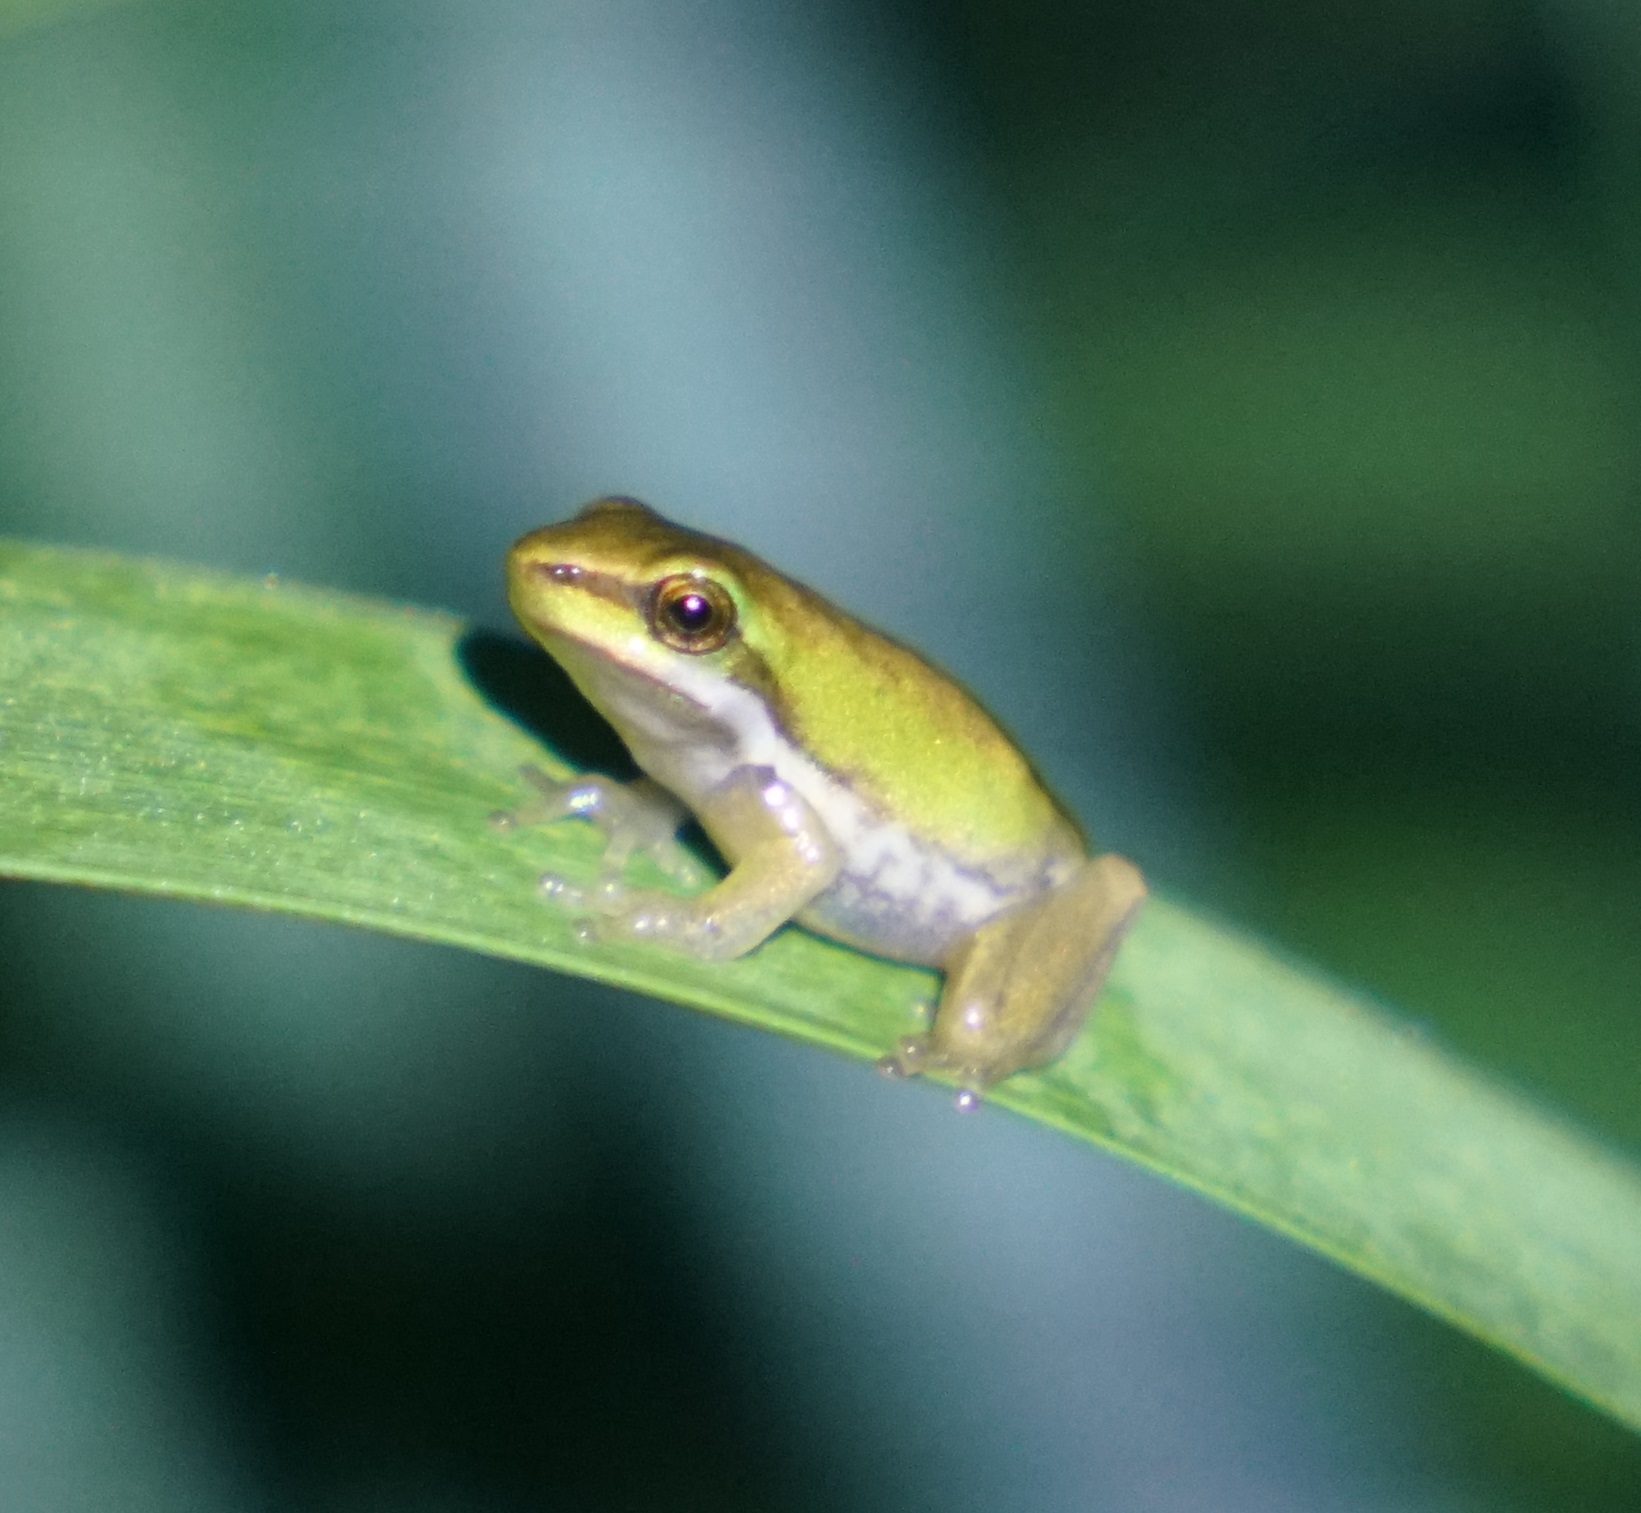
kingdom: Animalia
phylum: Chordata
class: Amphibia
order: Anura
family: Pelodryadidae
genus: Litoria
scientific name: Litoria fallax
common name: Eastern dwarf treefrog
